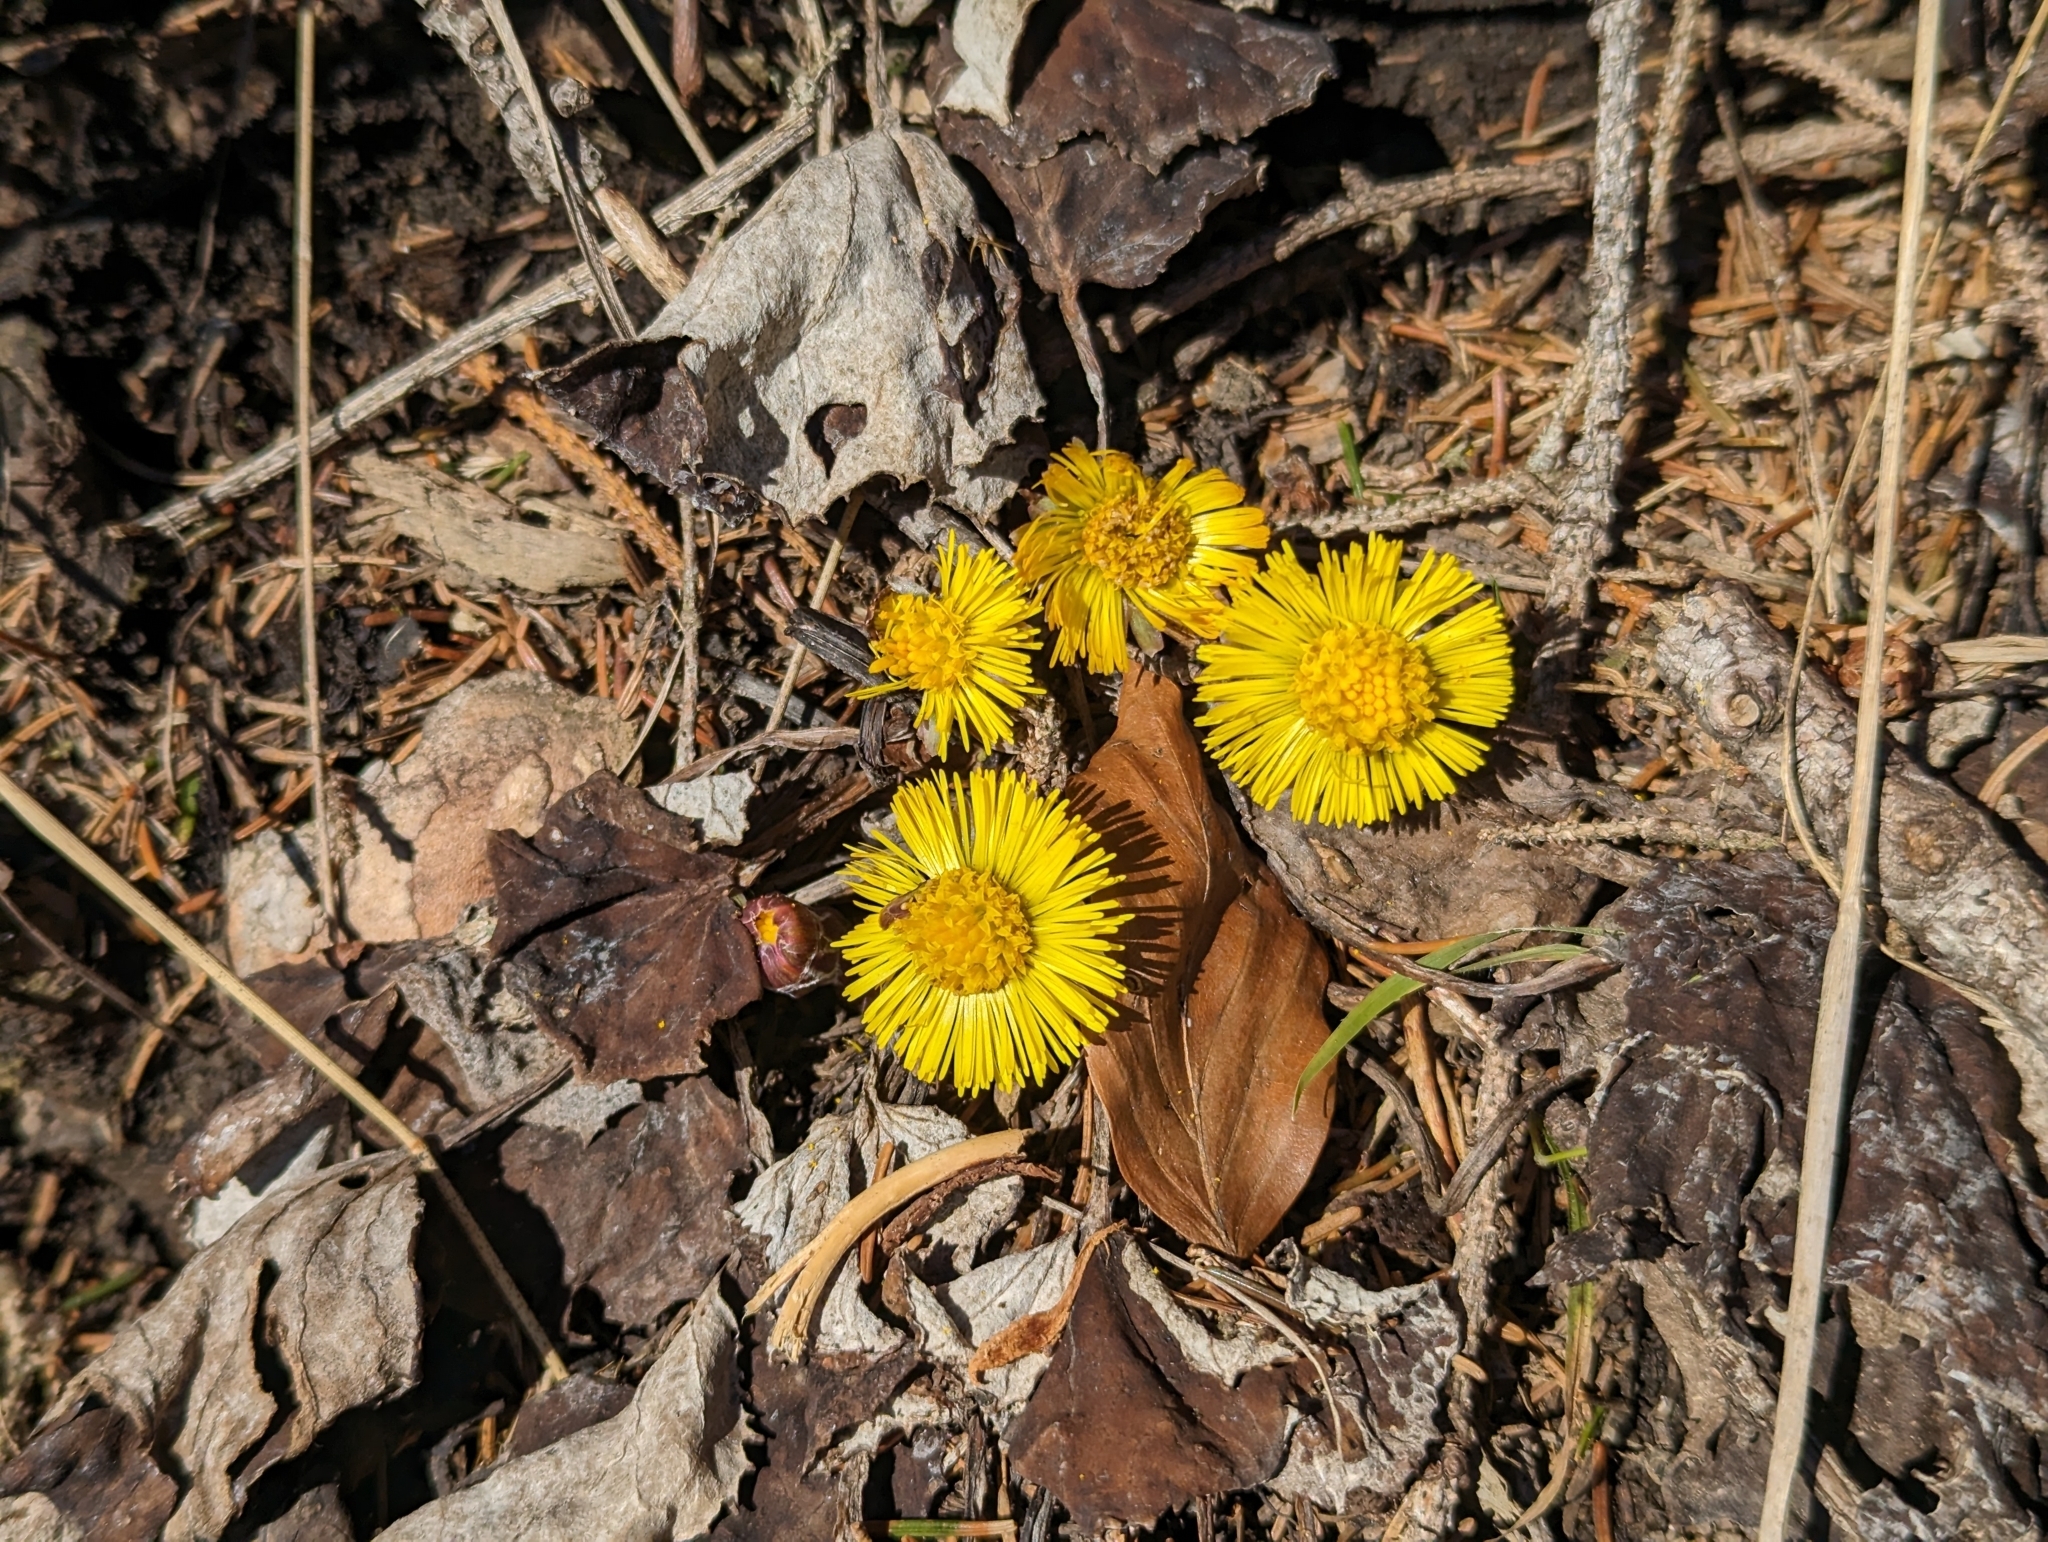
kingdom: Plantae
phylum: Tracheophyta
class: Magnoliopsida
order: Asterales
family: Asteraceae
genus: Tussilago
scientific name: Tussilago farfara
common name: Coltsfoot
